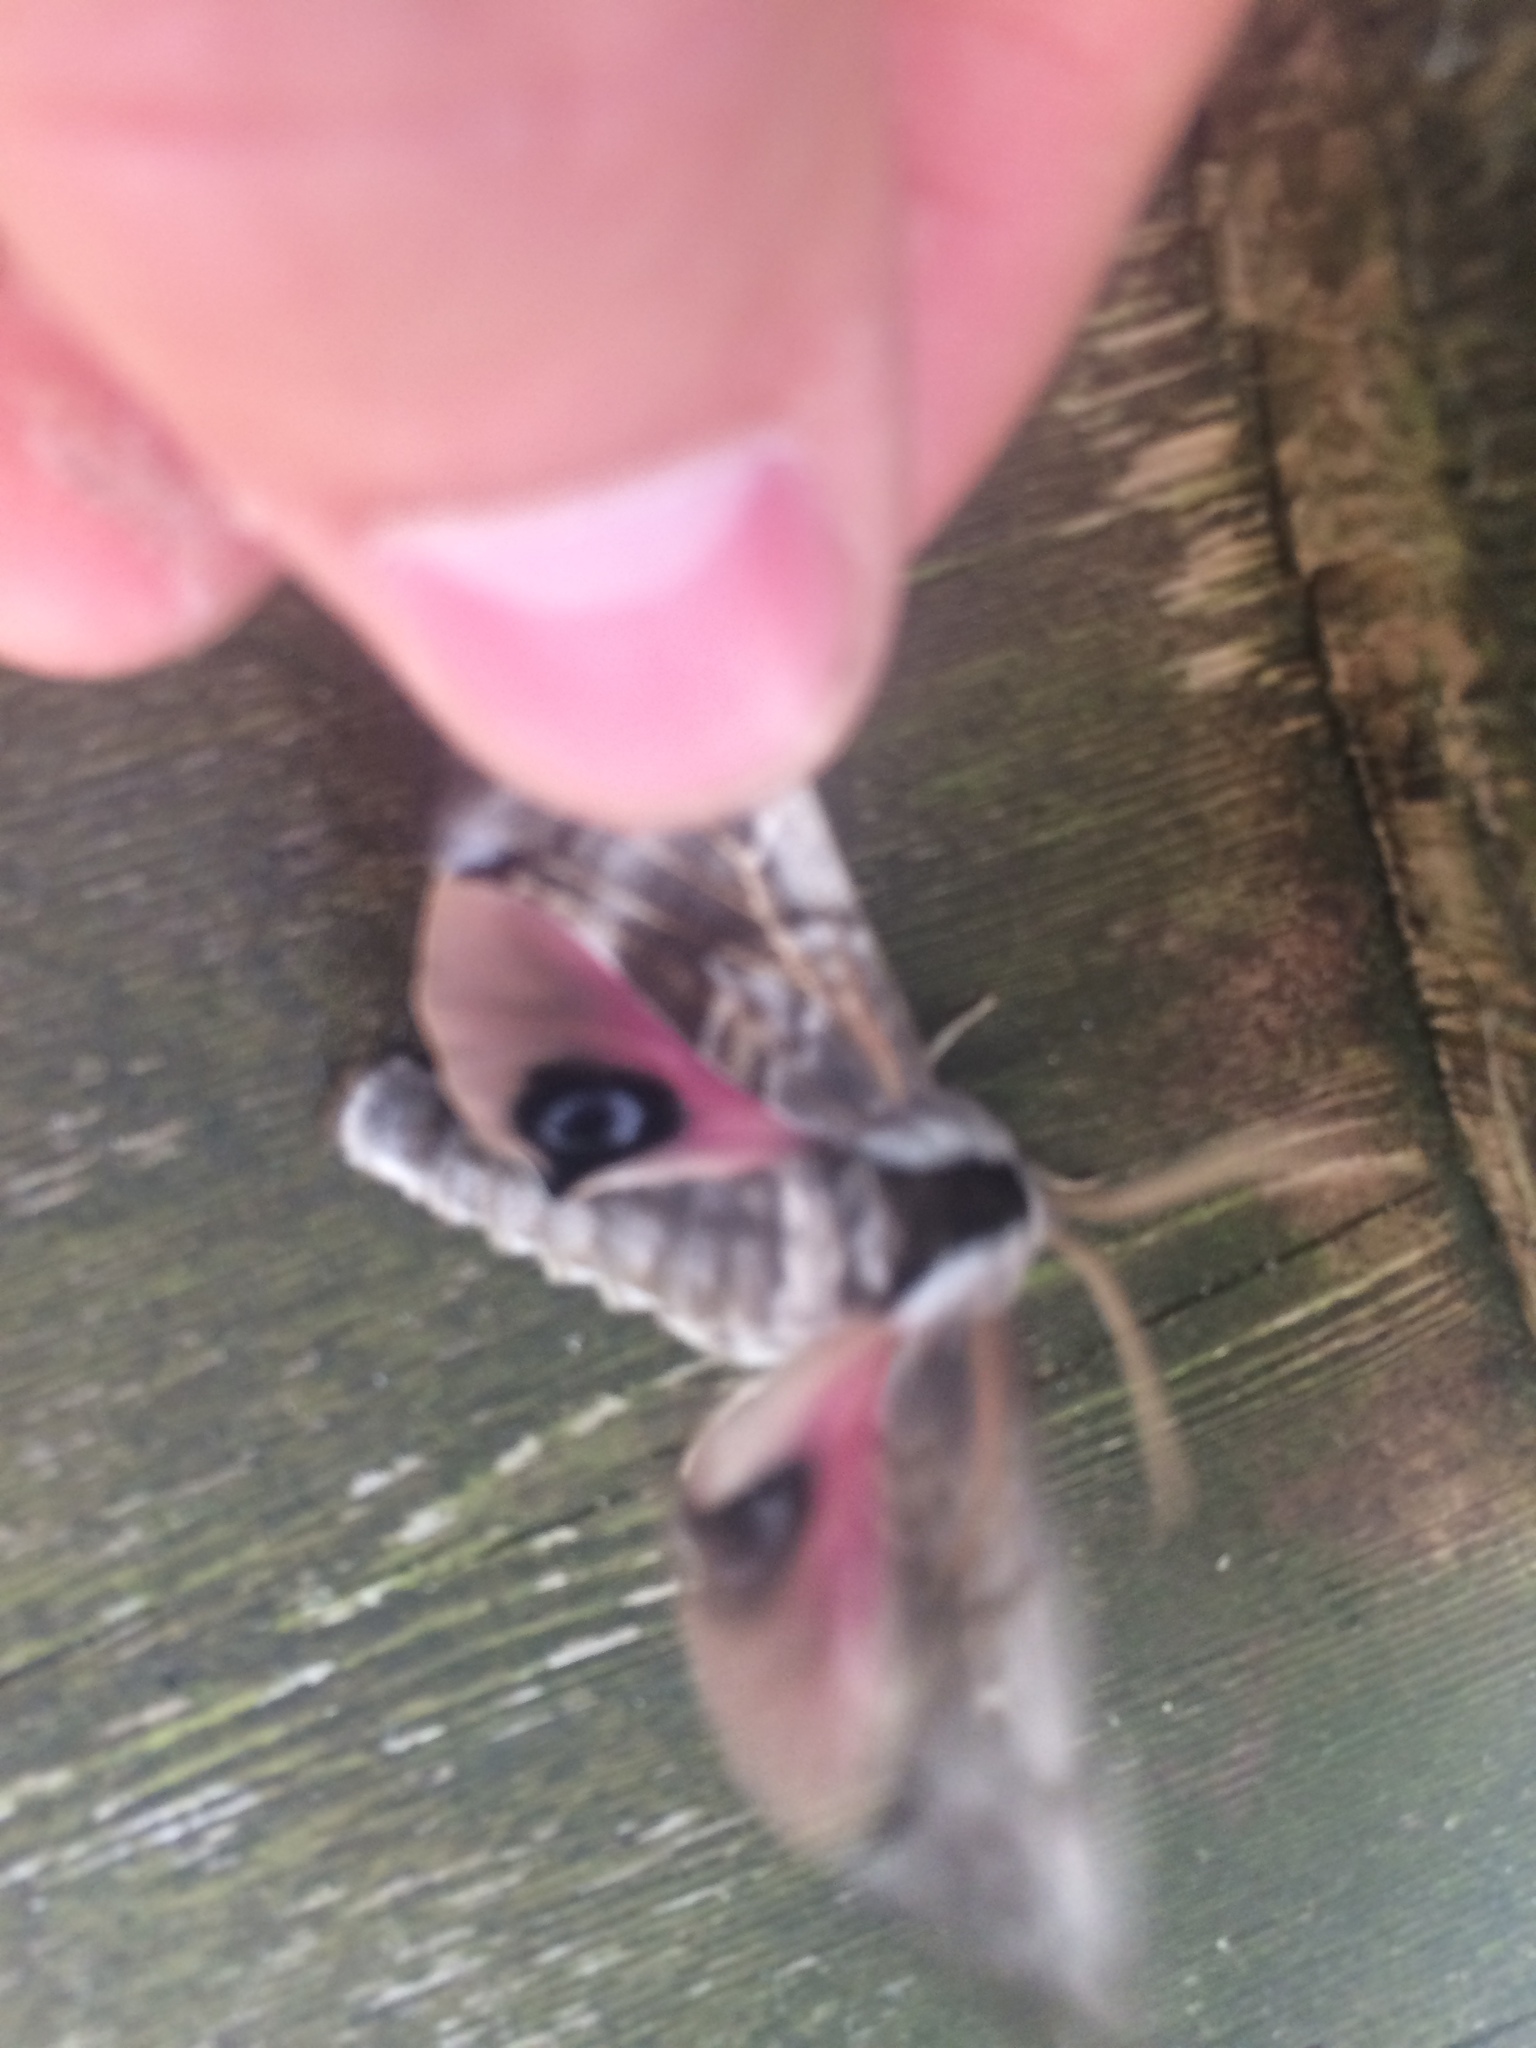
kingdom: Animalia
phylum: Arthropoda
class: Insecta
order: Lepidoptera
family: Sphingidae
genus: Smerinthus
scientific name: Smerinthus cerisyi
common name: Cerisy's sphinx moth
